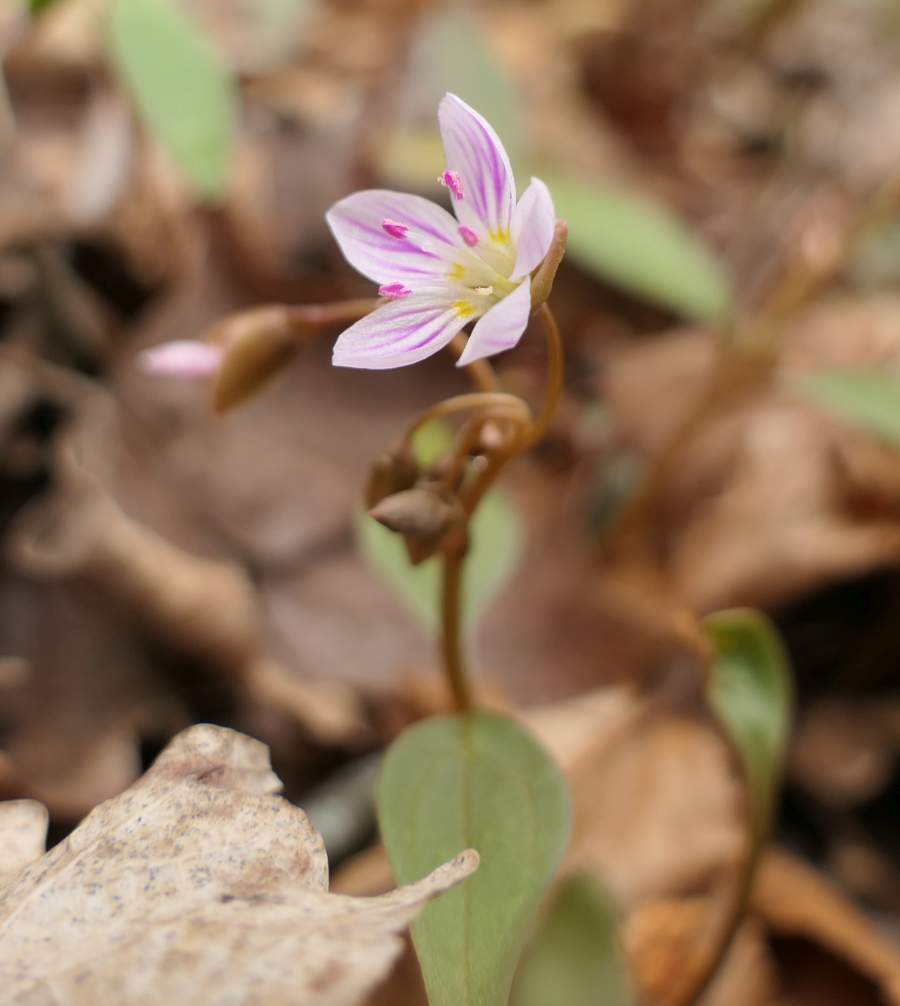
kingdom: Plantae
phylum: Tracheophyta
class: Magnoliopsida
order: Caryophyllales
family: Montiaceae
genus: Claytonia
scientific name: Claytonia caroliniana
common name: Carolina spring beauty
